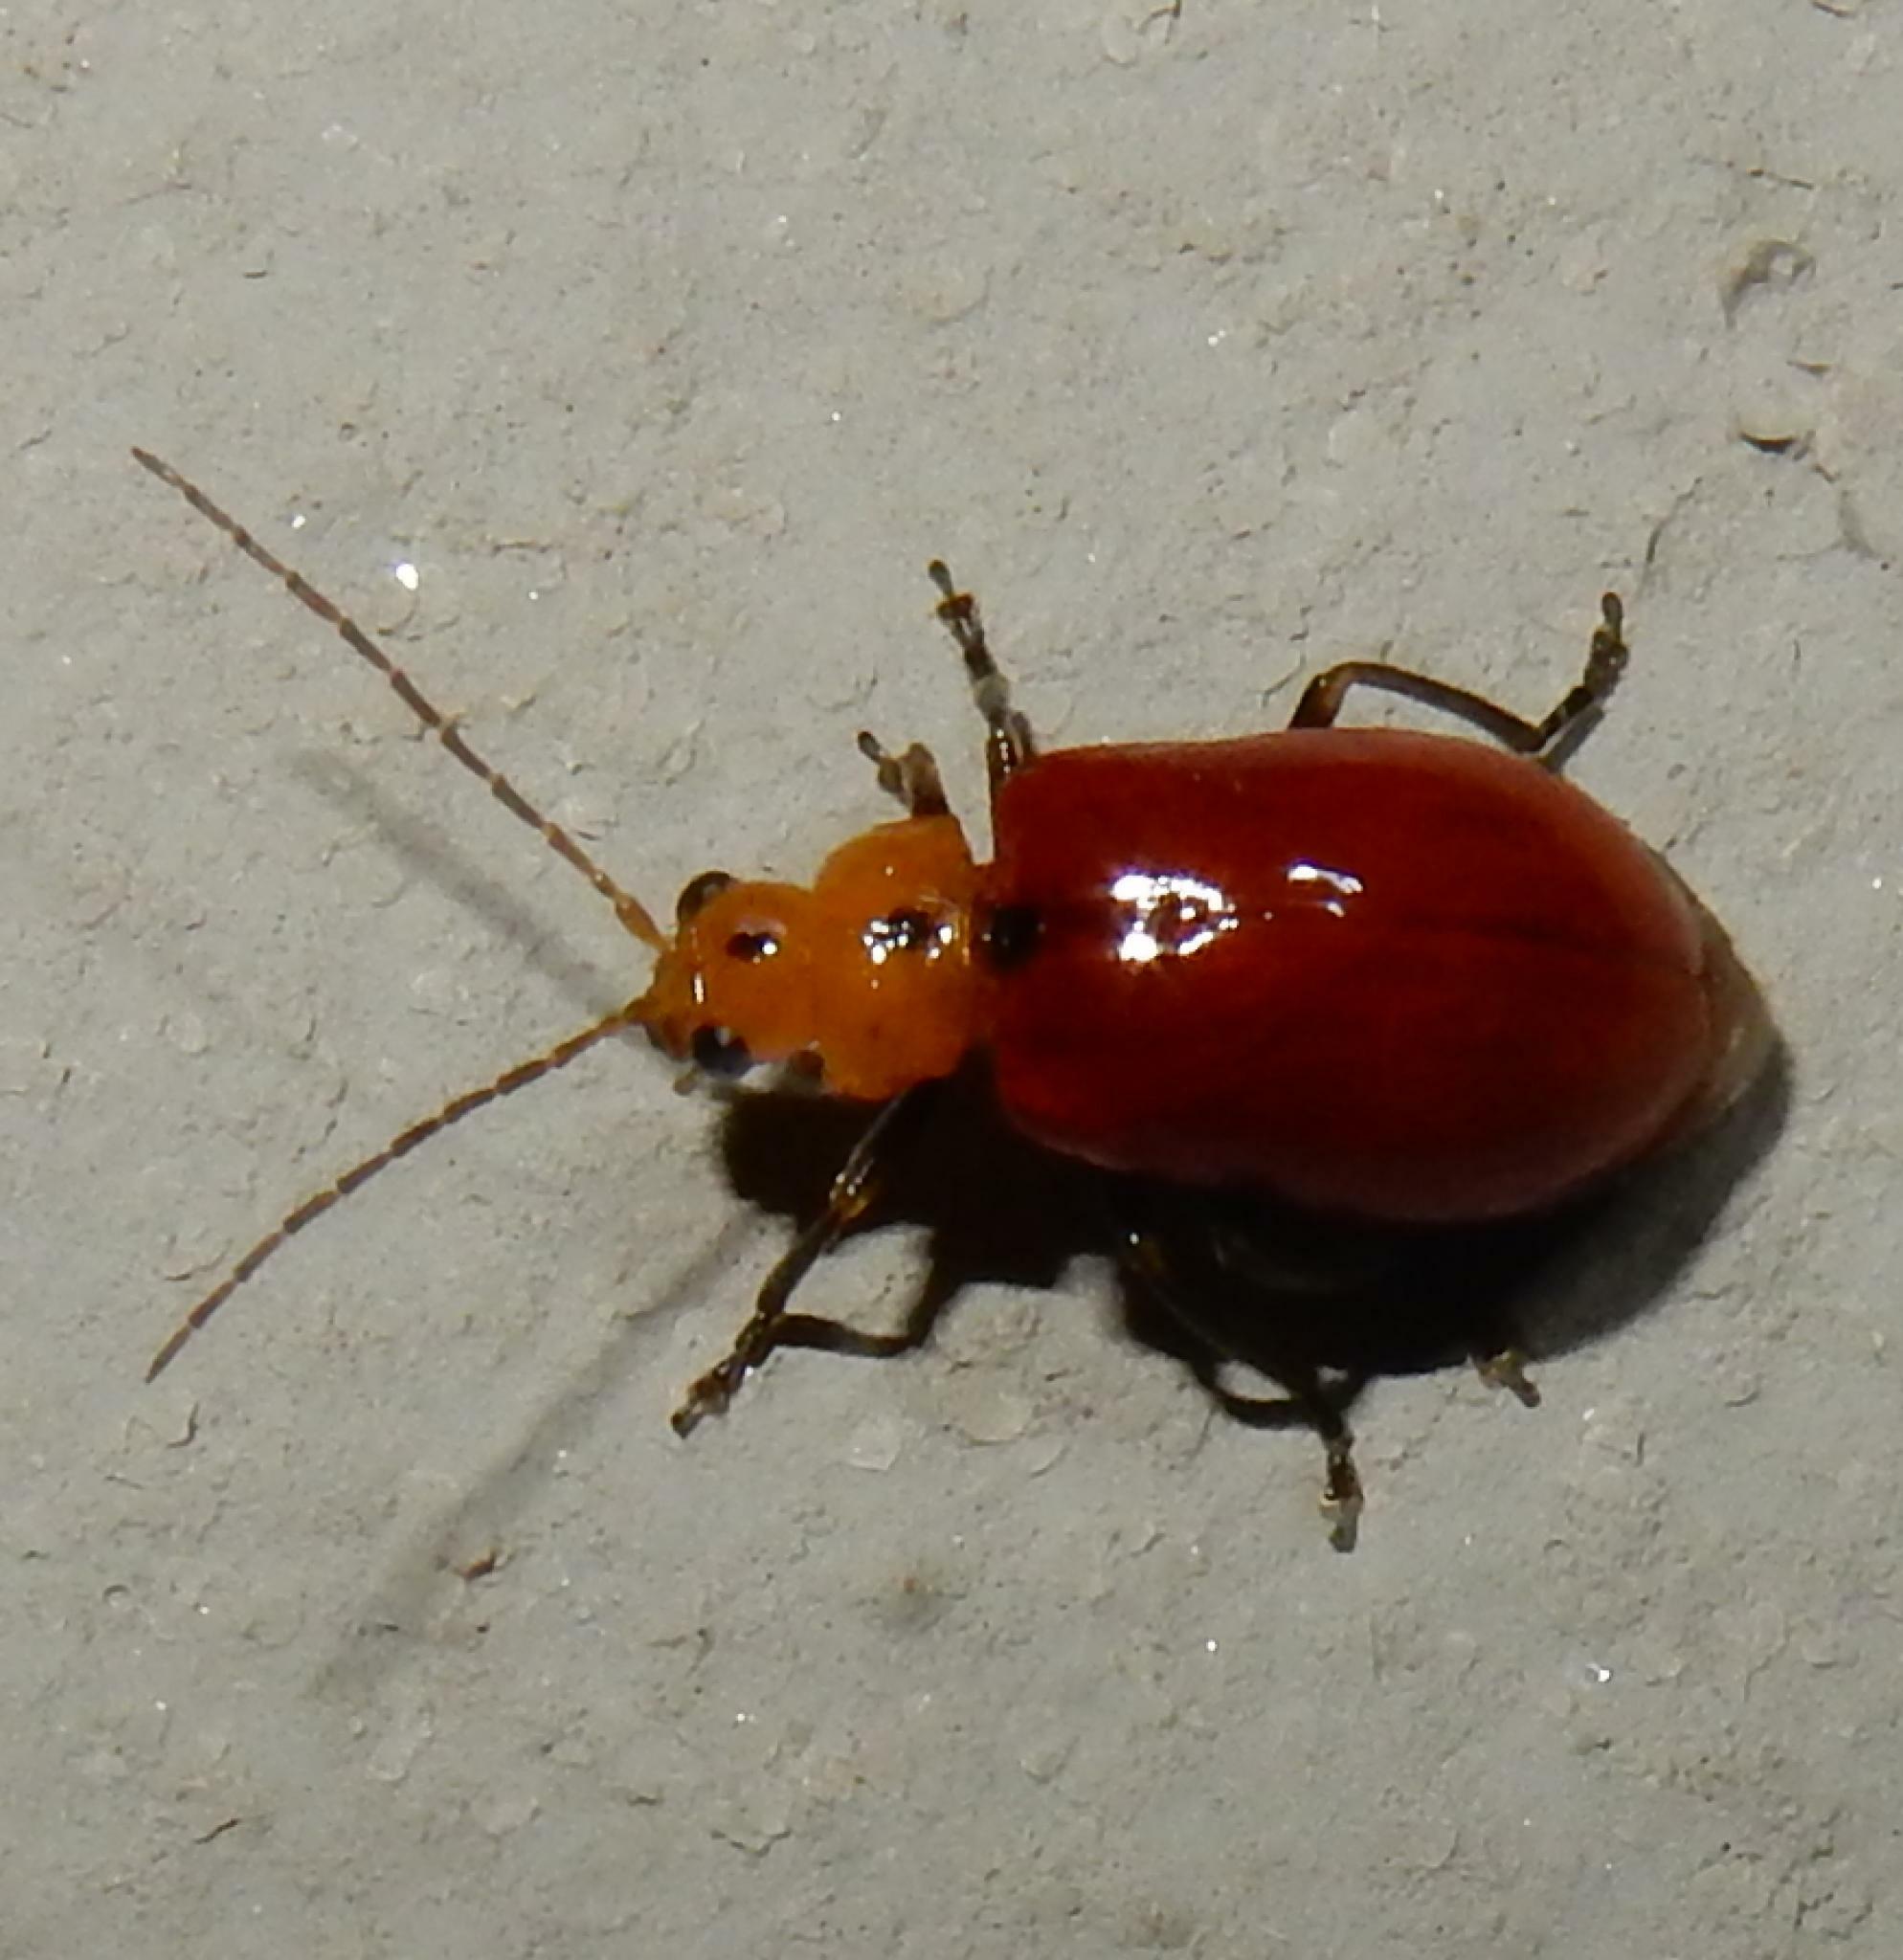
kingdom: Animalia
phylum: Arthropoda
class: Insecta
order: Coleoptera
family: Chrysomelidae
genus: Leptaulaca
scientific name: Leptaulaca
